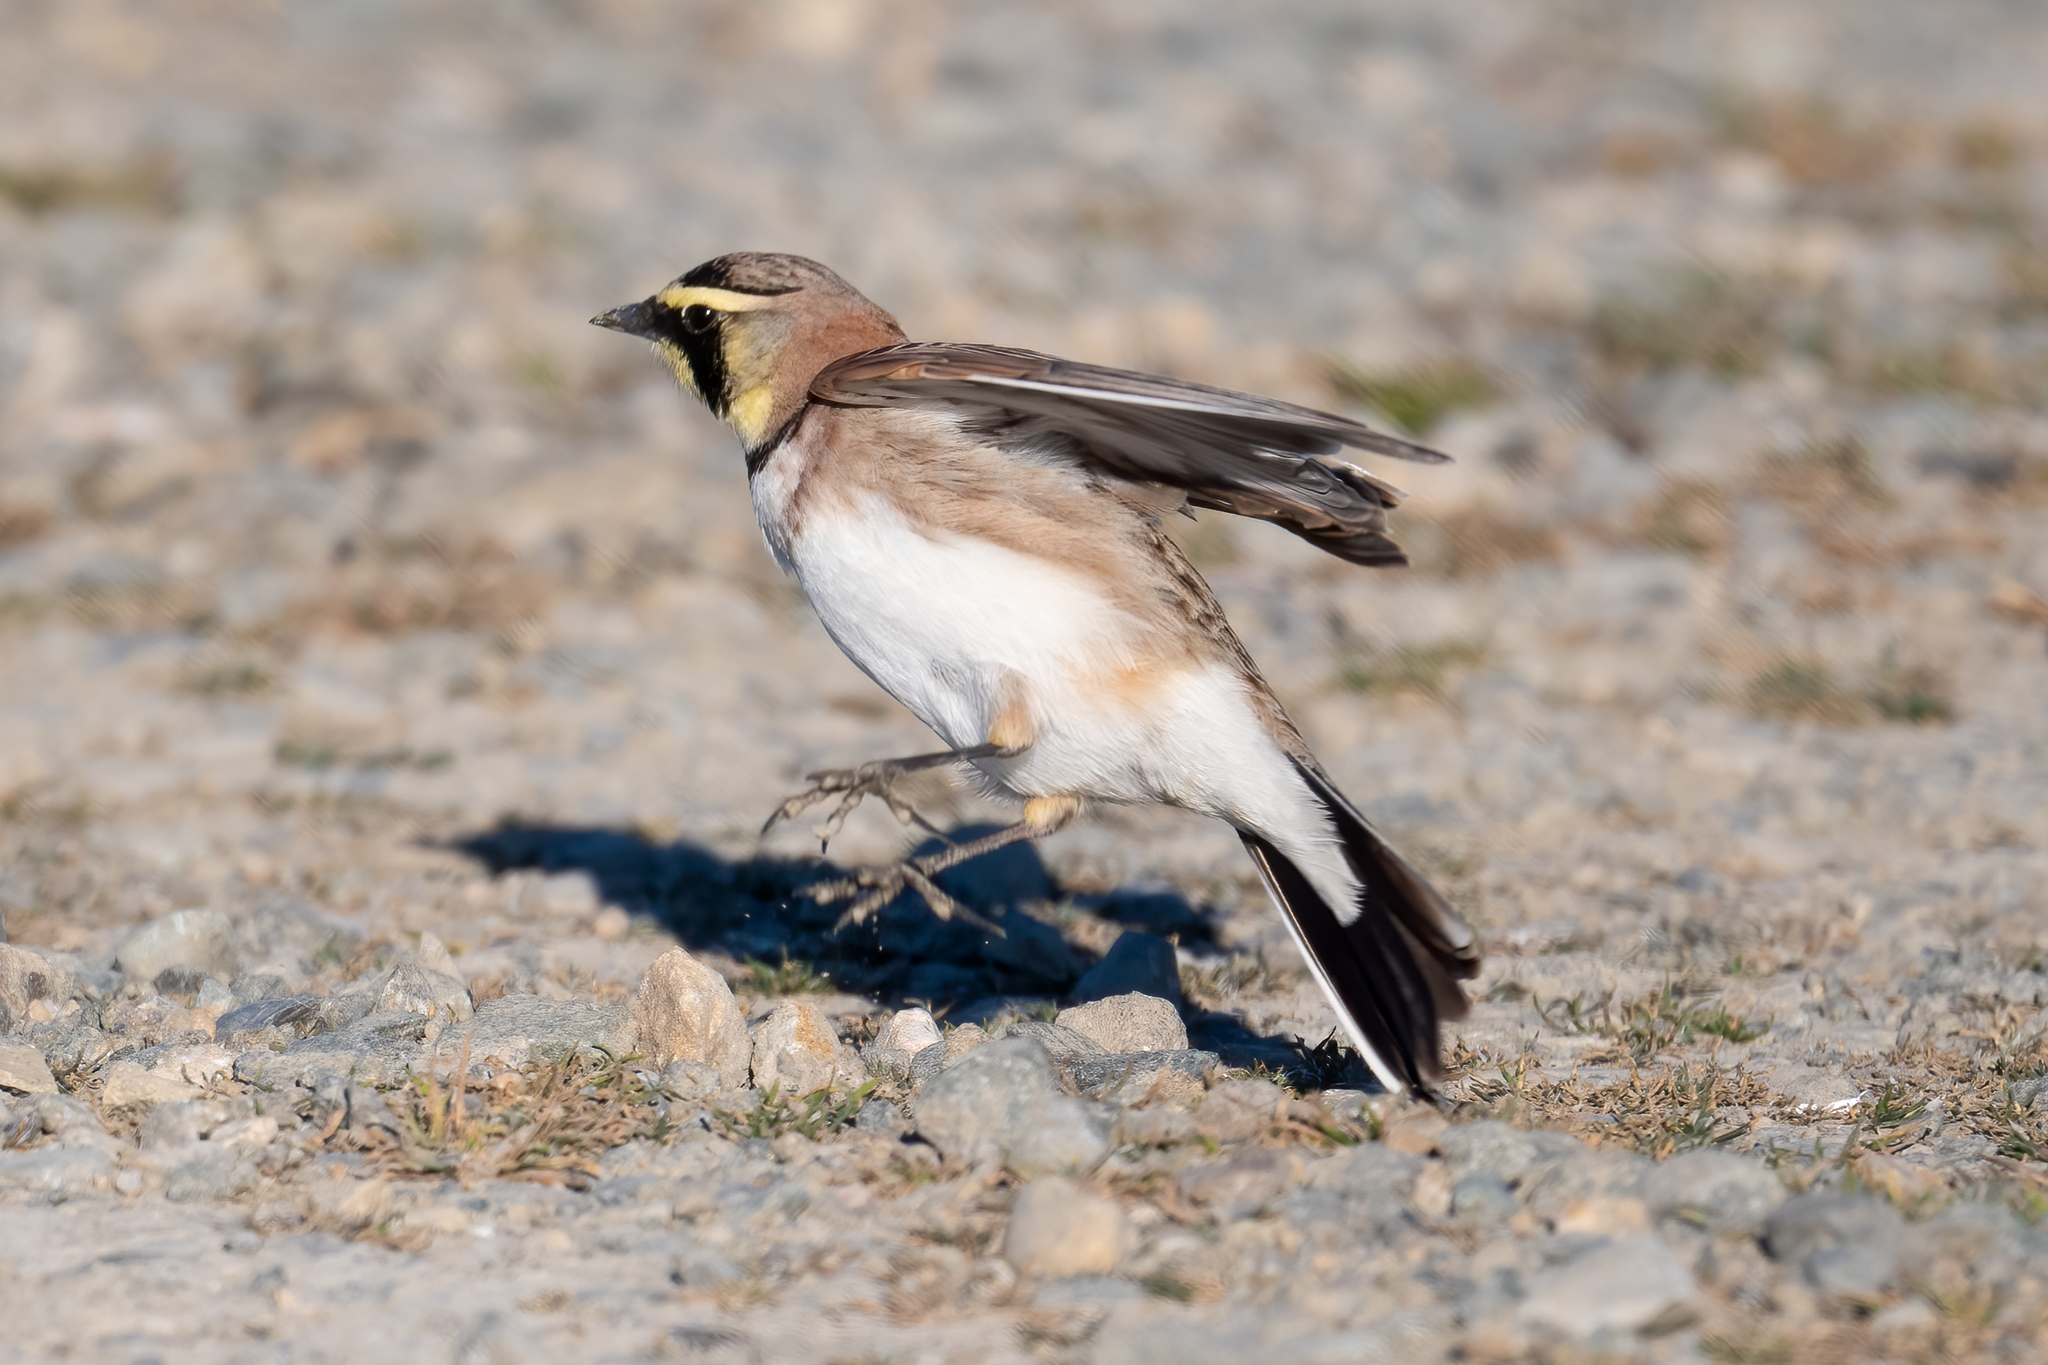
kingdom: Animalia
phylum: Chordata
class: Aves
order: Passeriformes
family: Alaudidae
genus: Eremophila
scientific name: Eremophila alpestris
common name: Horned lark
